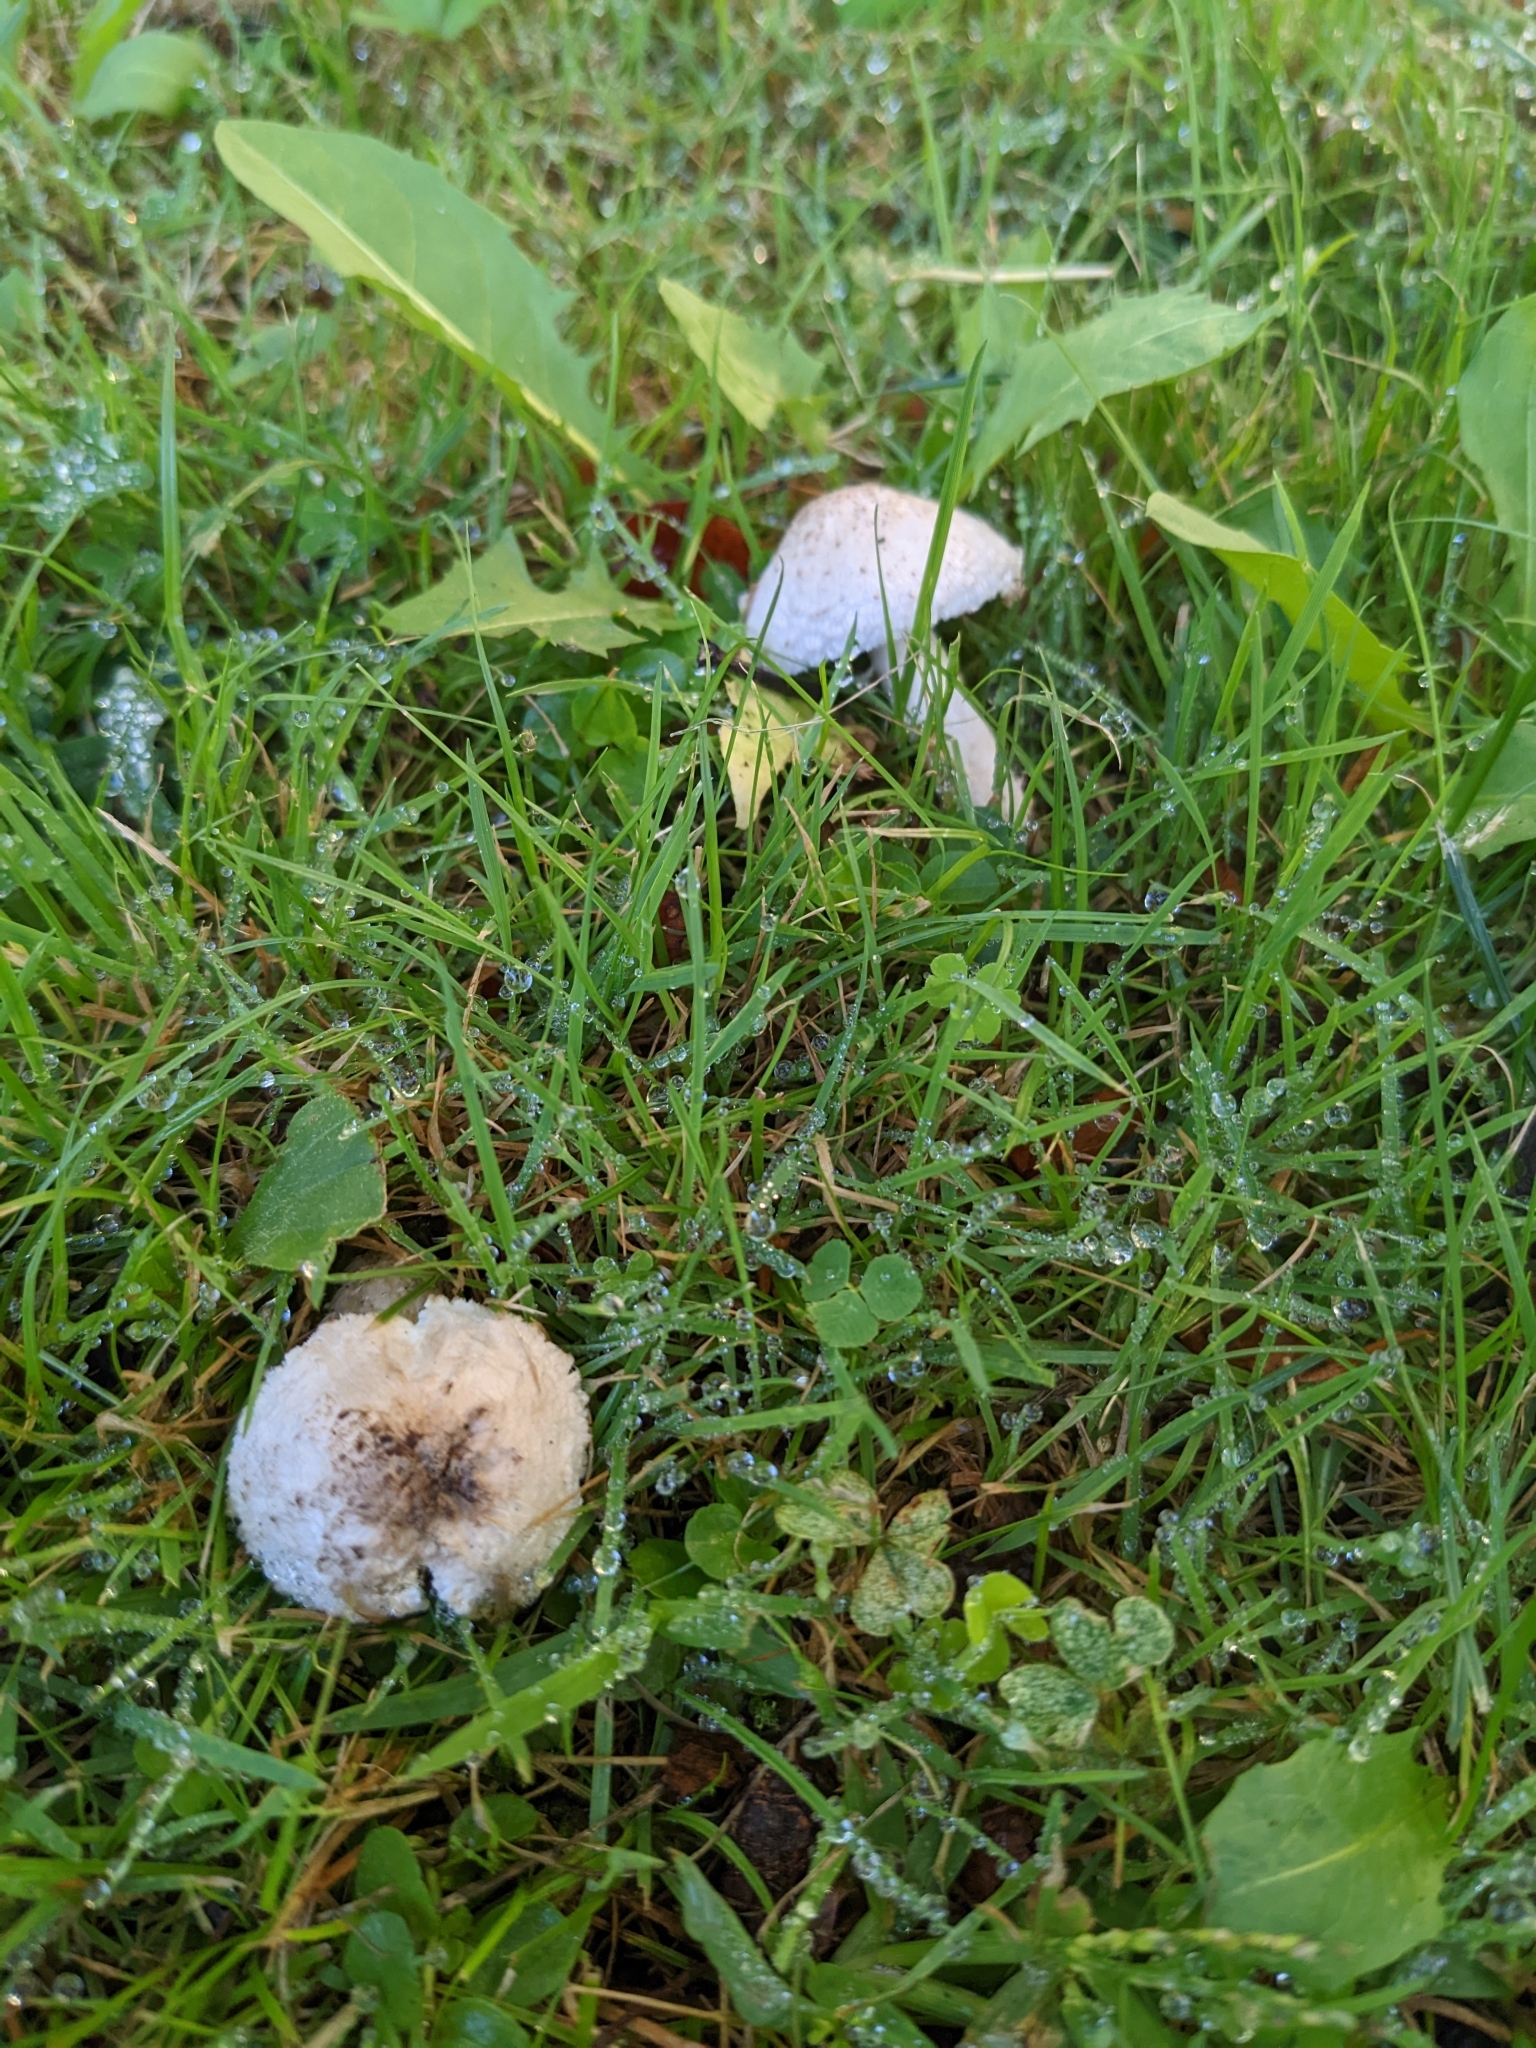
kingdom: Fungi
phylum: Basidiomycota
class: Agaricomycetes
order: Agaricales
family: Agaricaceae
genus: Leucoagaricus
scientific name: Leucoagaricus barssii
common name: Smoky dapperling
